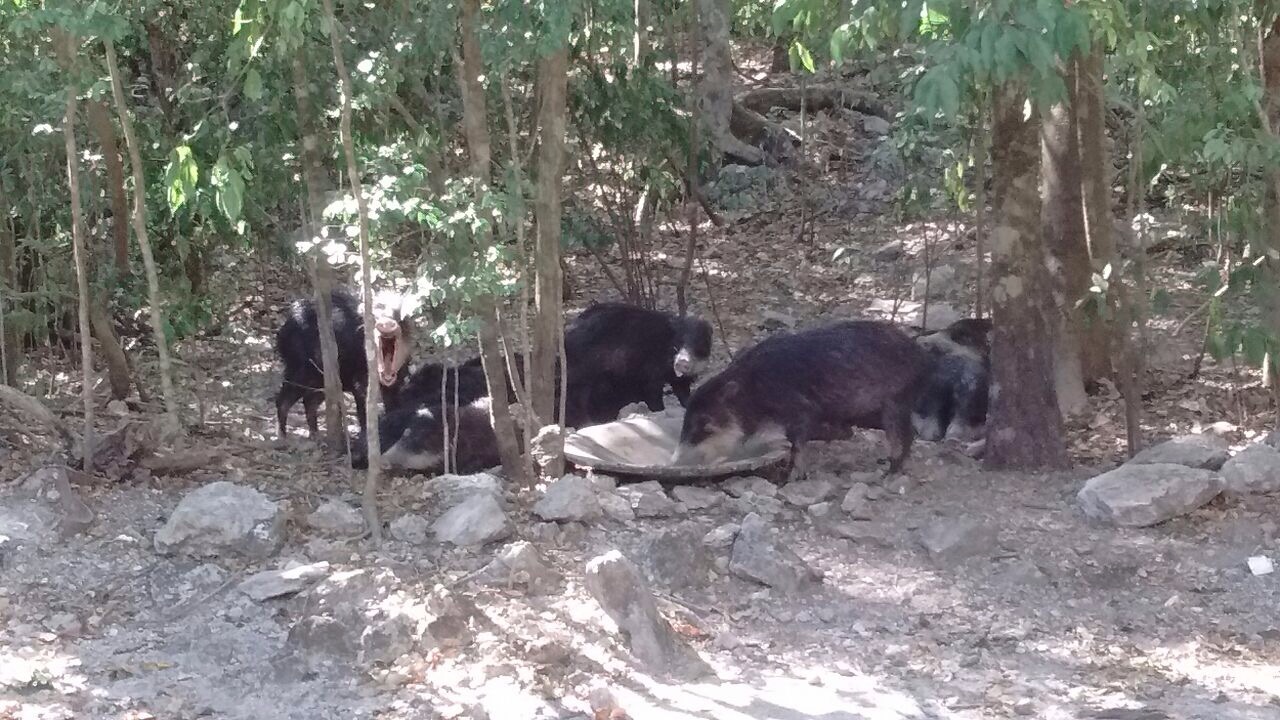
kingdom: Animalia
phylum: Chordata
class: Mammalia
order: Artiodactyla
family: Tayassuidae
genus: Tayassu
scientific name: Tayassu pecari
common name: White-lipped peccary
